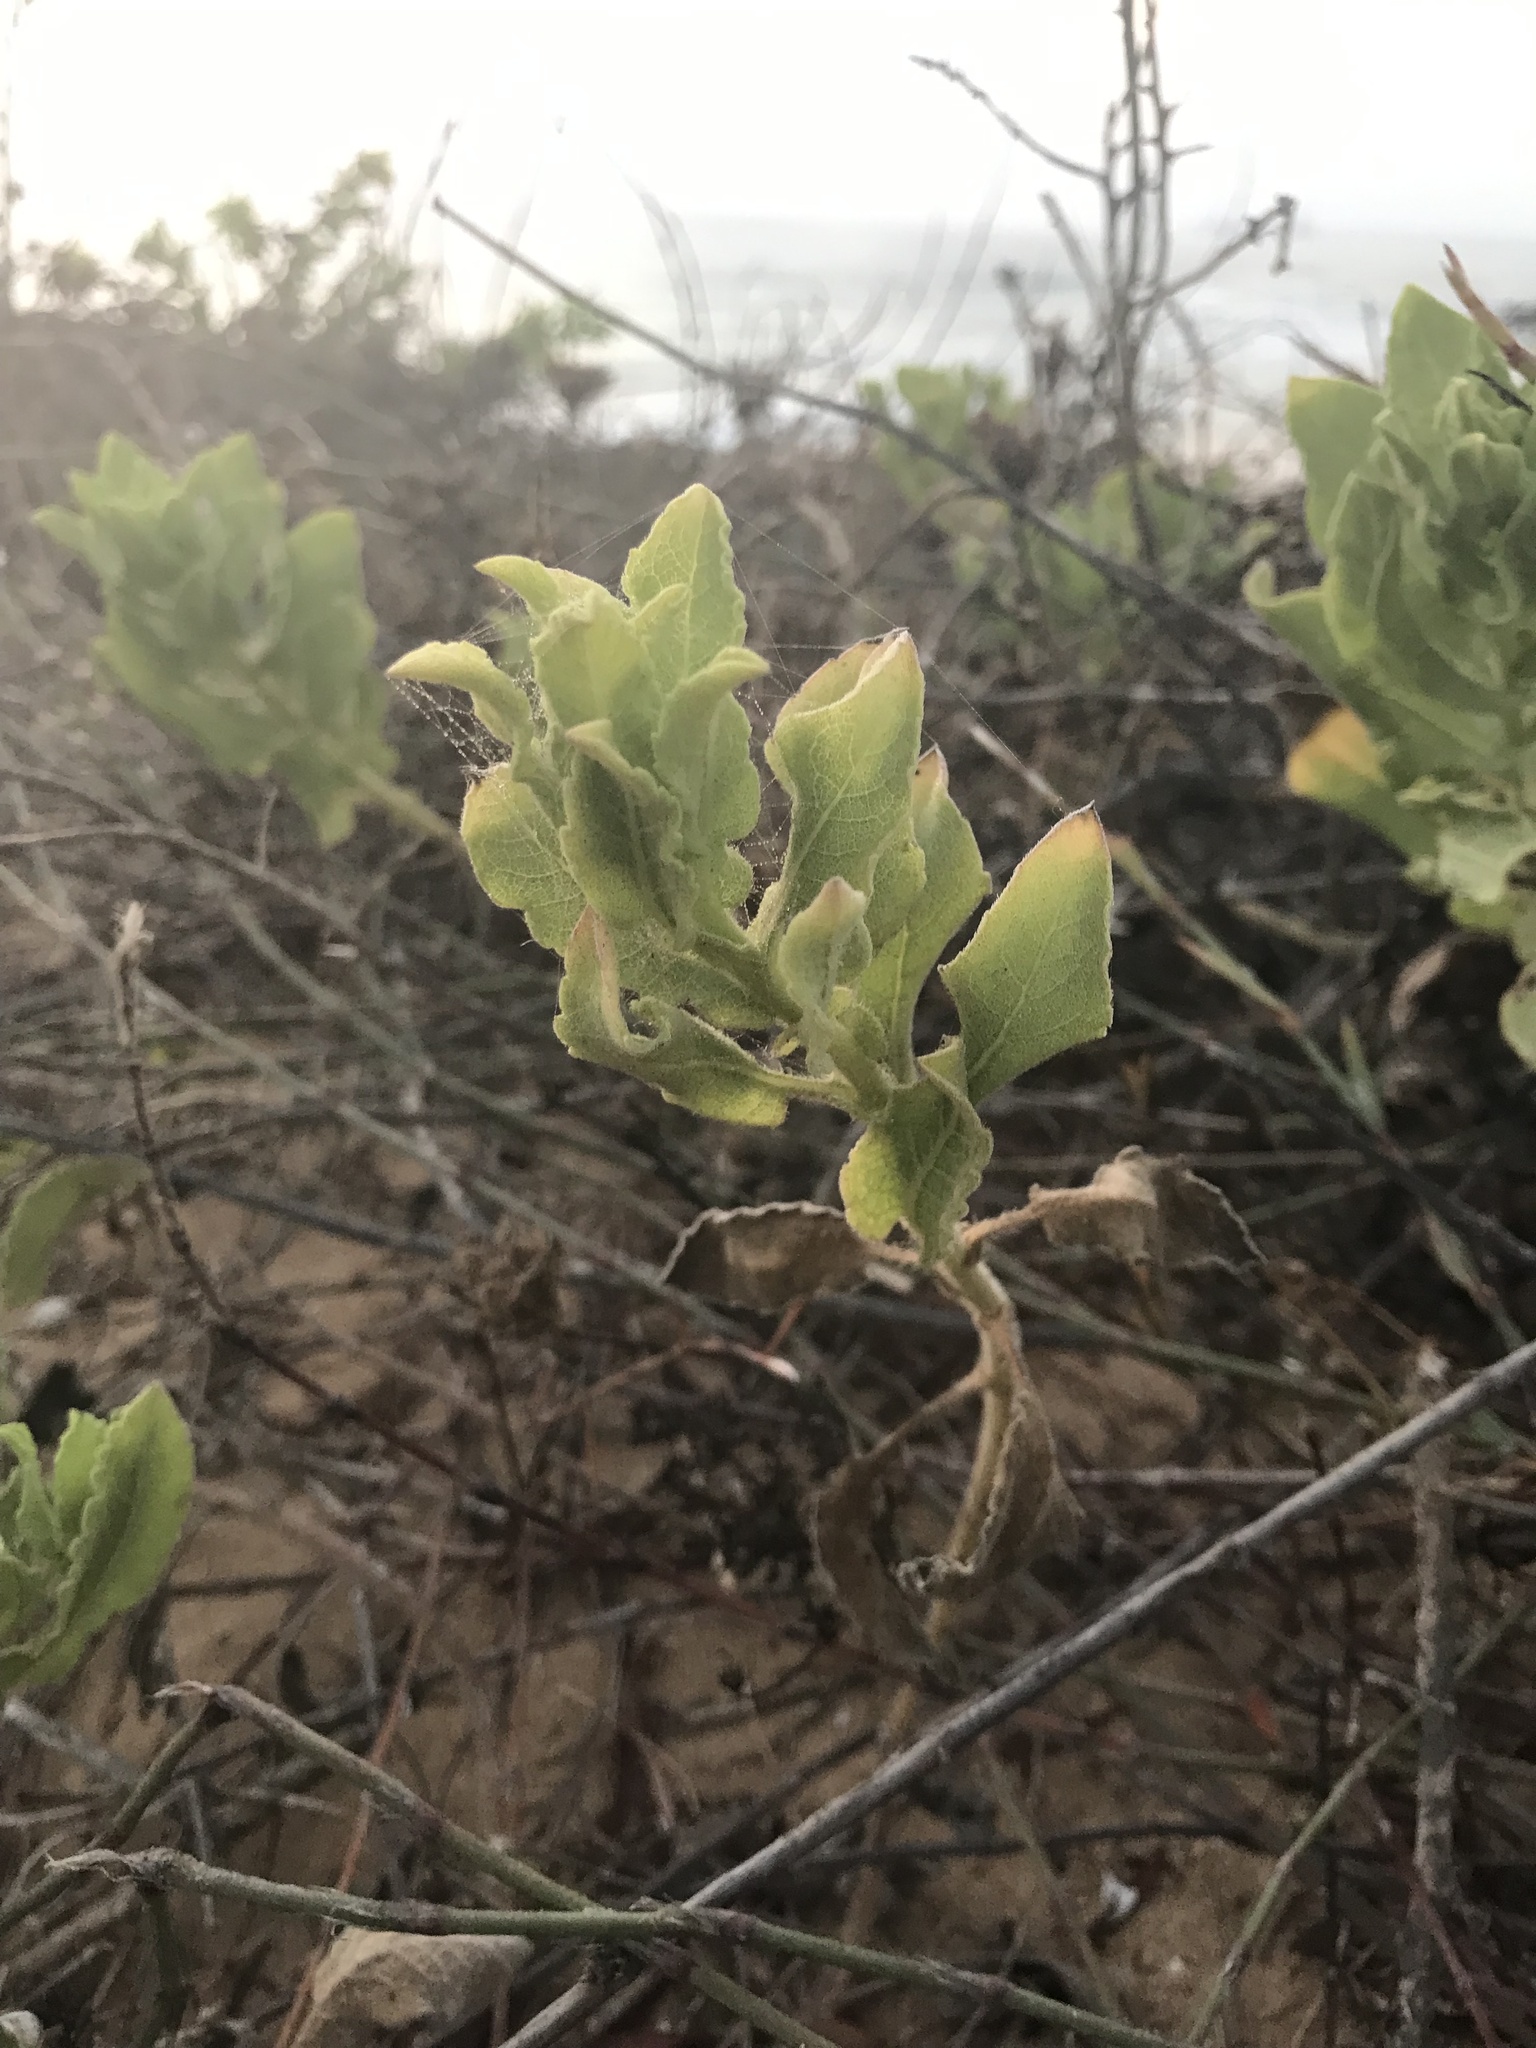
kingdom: Plantae
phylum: Tracheophyta
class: Magnoliopsida
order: Asterales
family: Asteraceae
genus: Heterotheca
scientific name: Heterotheca subaxillaris
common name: Camphorweed
